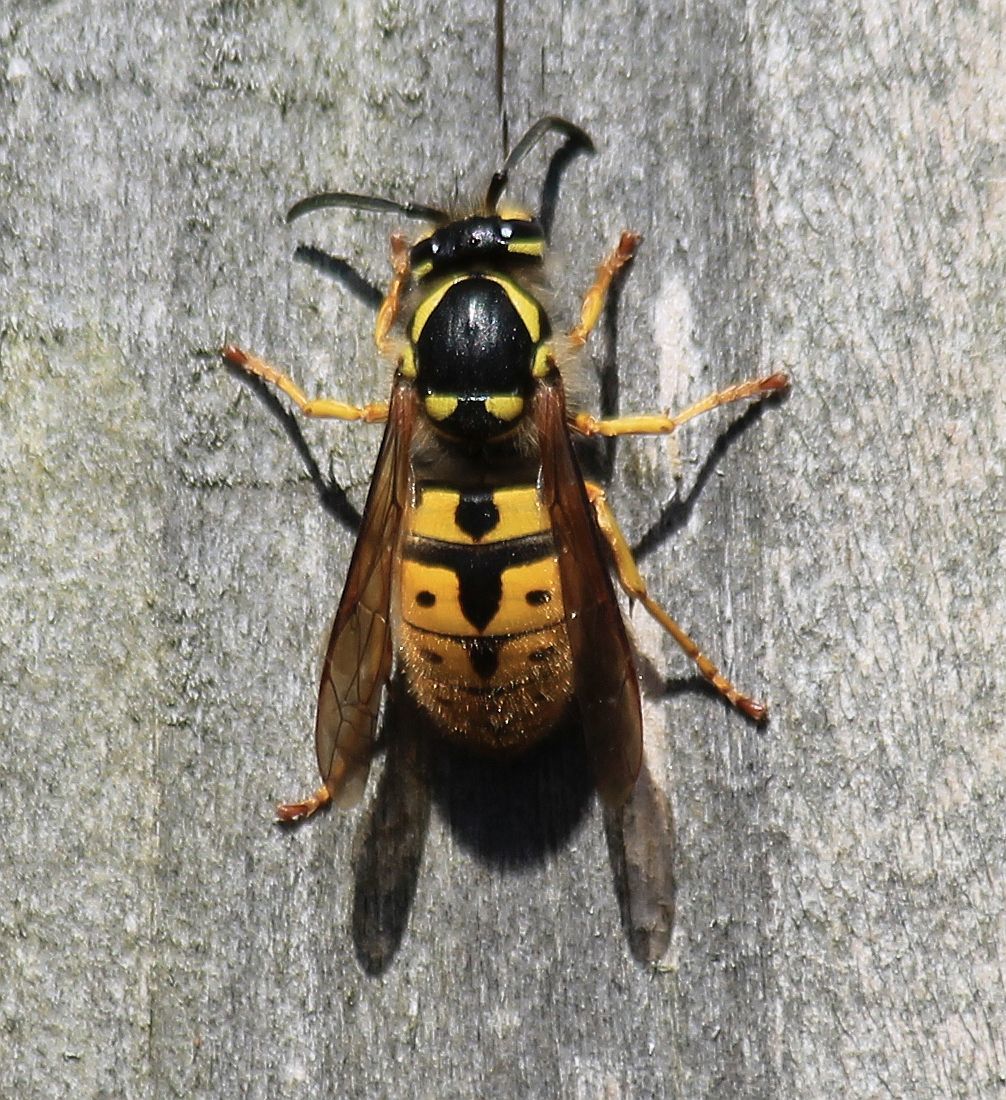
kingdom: Animalia
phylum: Arthropoda
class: Insecta
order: Hymenoptera
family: Vespidae
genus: Vespula
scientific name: Vespula germanica
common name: German wasp
